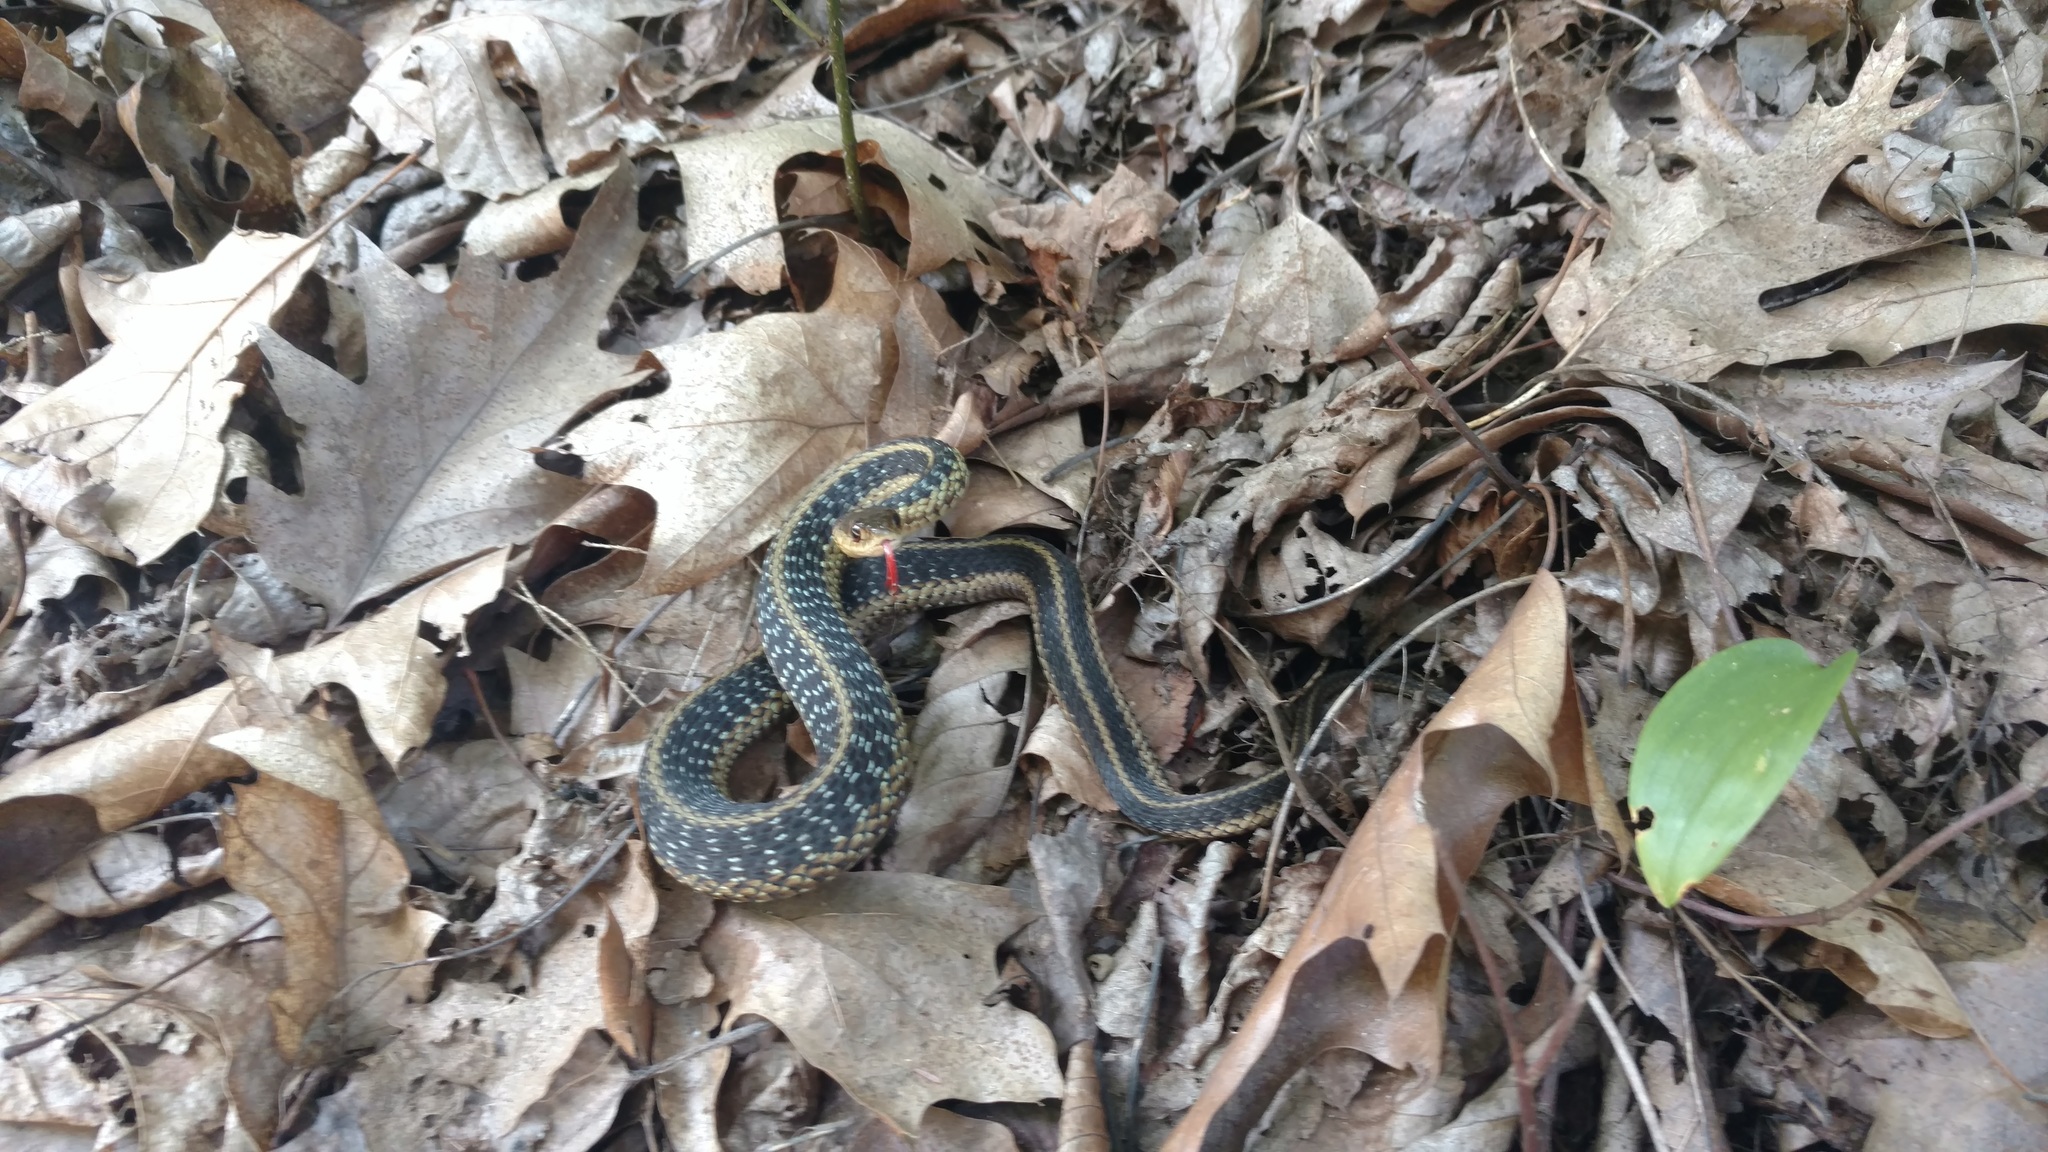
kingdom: Animalia
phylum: Chordata
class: Squamata
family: Colubridae
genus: Thamnophis
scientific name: Thamnophis sirtalis
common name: Common garter snake
